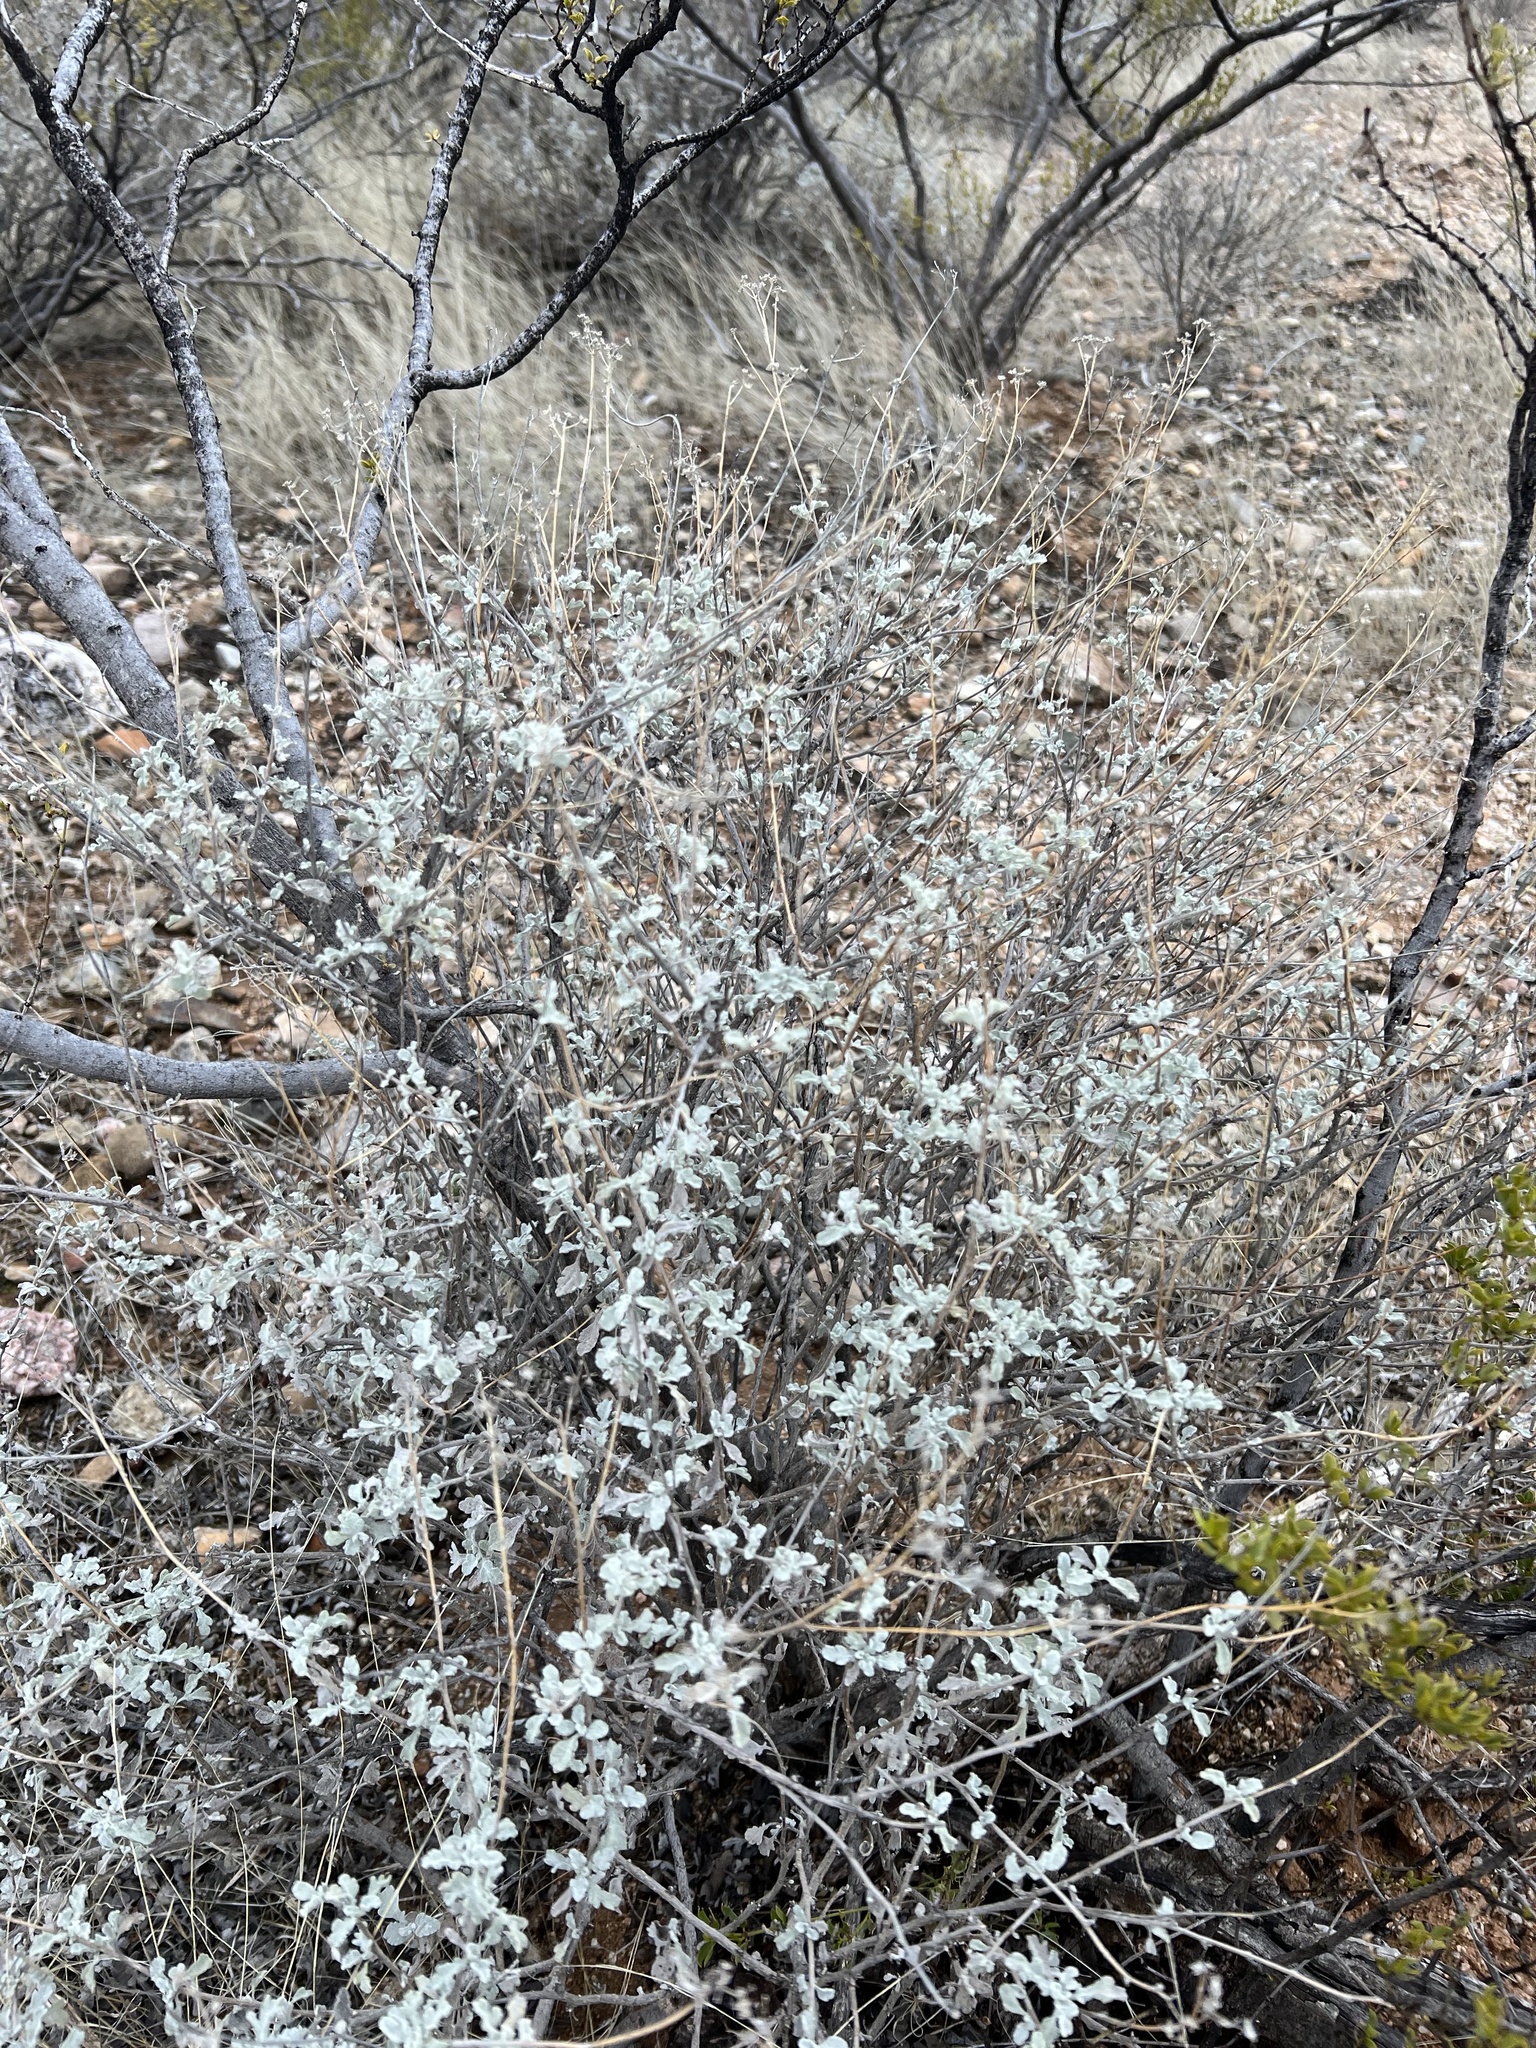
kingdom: Plantae
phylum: Tracheophyta
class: Magnoliopsida
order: Asterales
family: Asteraceae
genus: Parthenium
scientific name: Parthenium incanum
